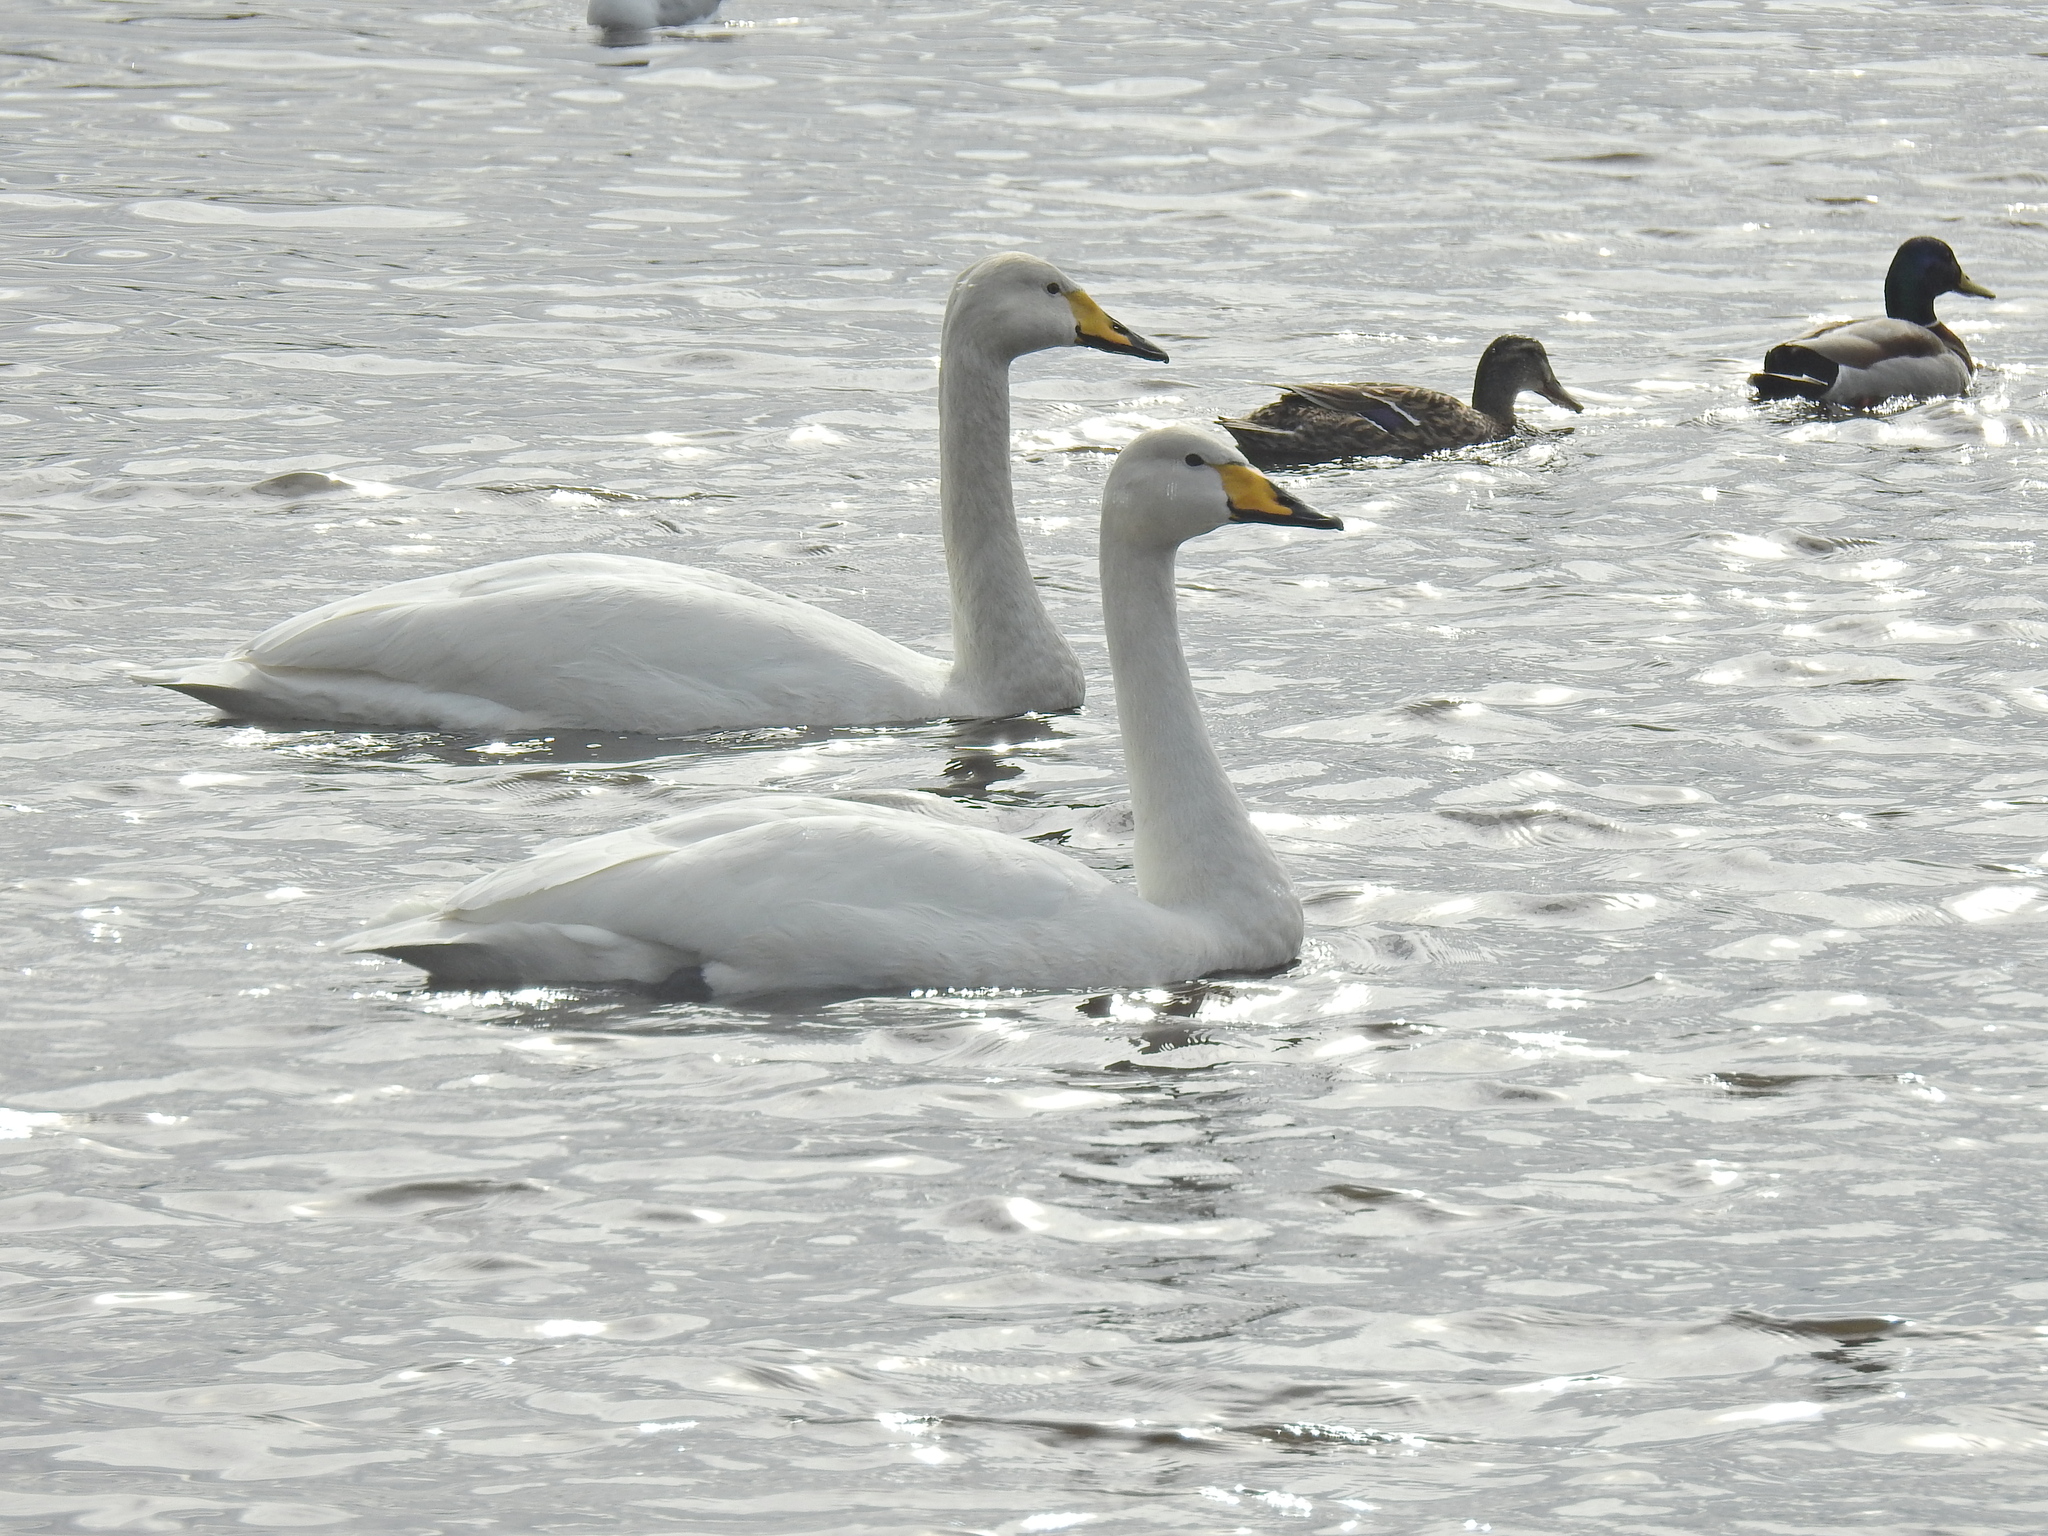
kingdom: Animalia
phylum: Chordata
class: Aves
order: Anseriformes
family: Anatidae
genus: Cygnus
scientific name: Cygnus cygnus
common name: Whooper swan
